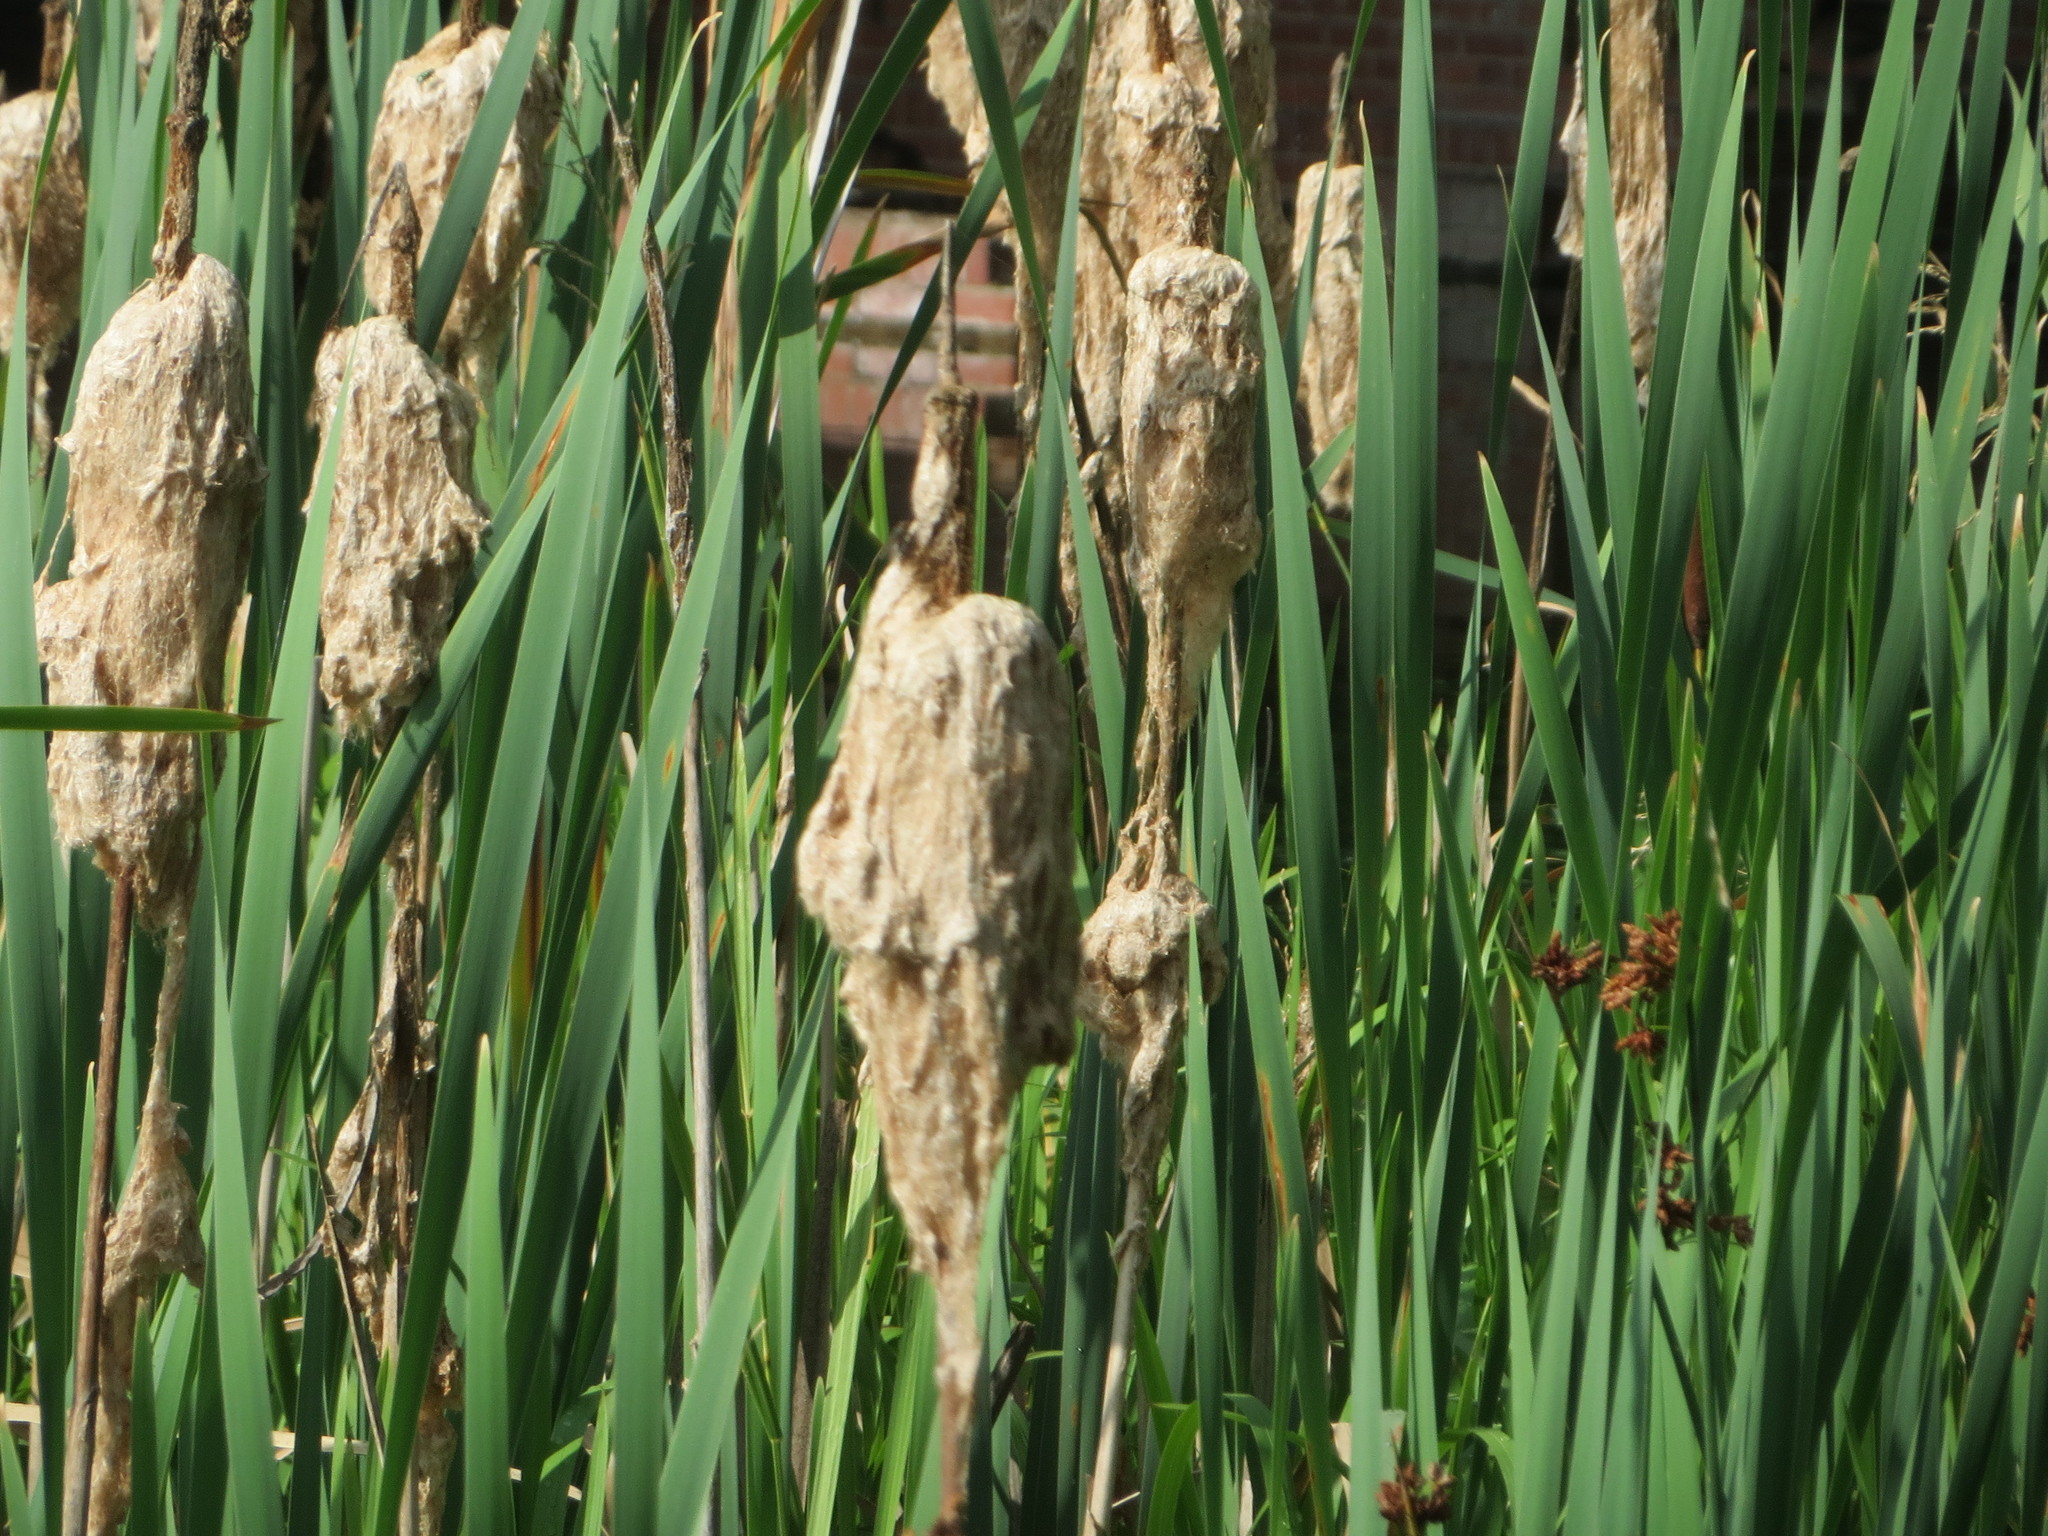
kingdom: Plantae
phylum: Tracheophyta
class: Liliopsida
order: Poales
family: Typhaceae
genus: Typha
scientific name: Typha latifolia
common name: Broadleaf cattail
